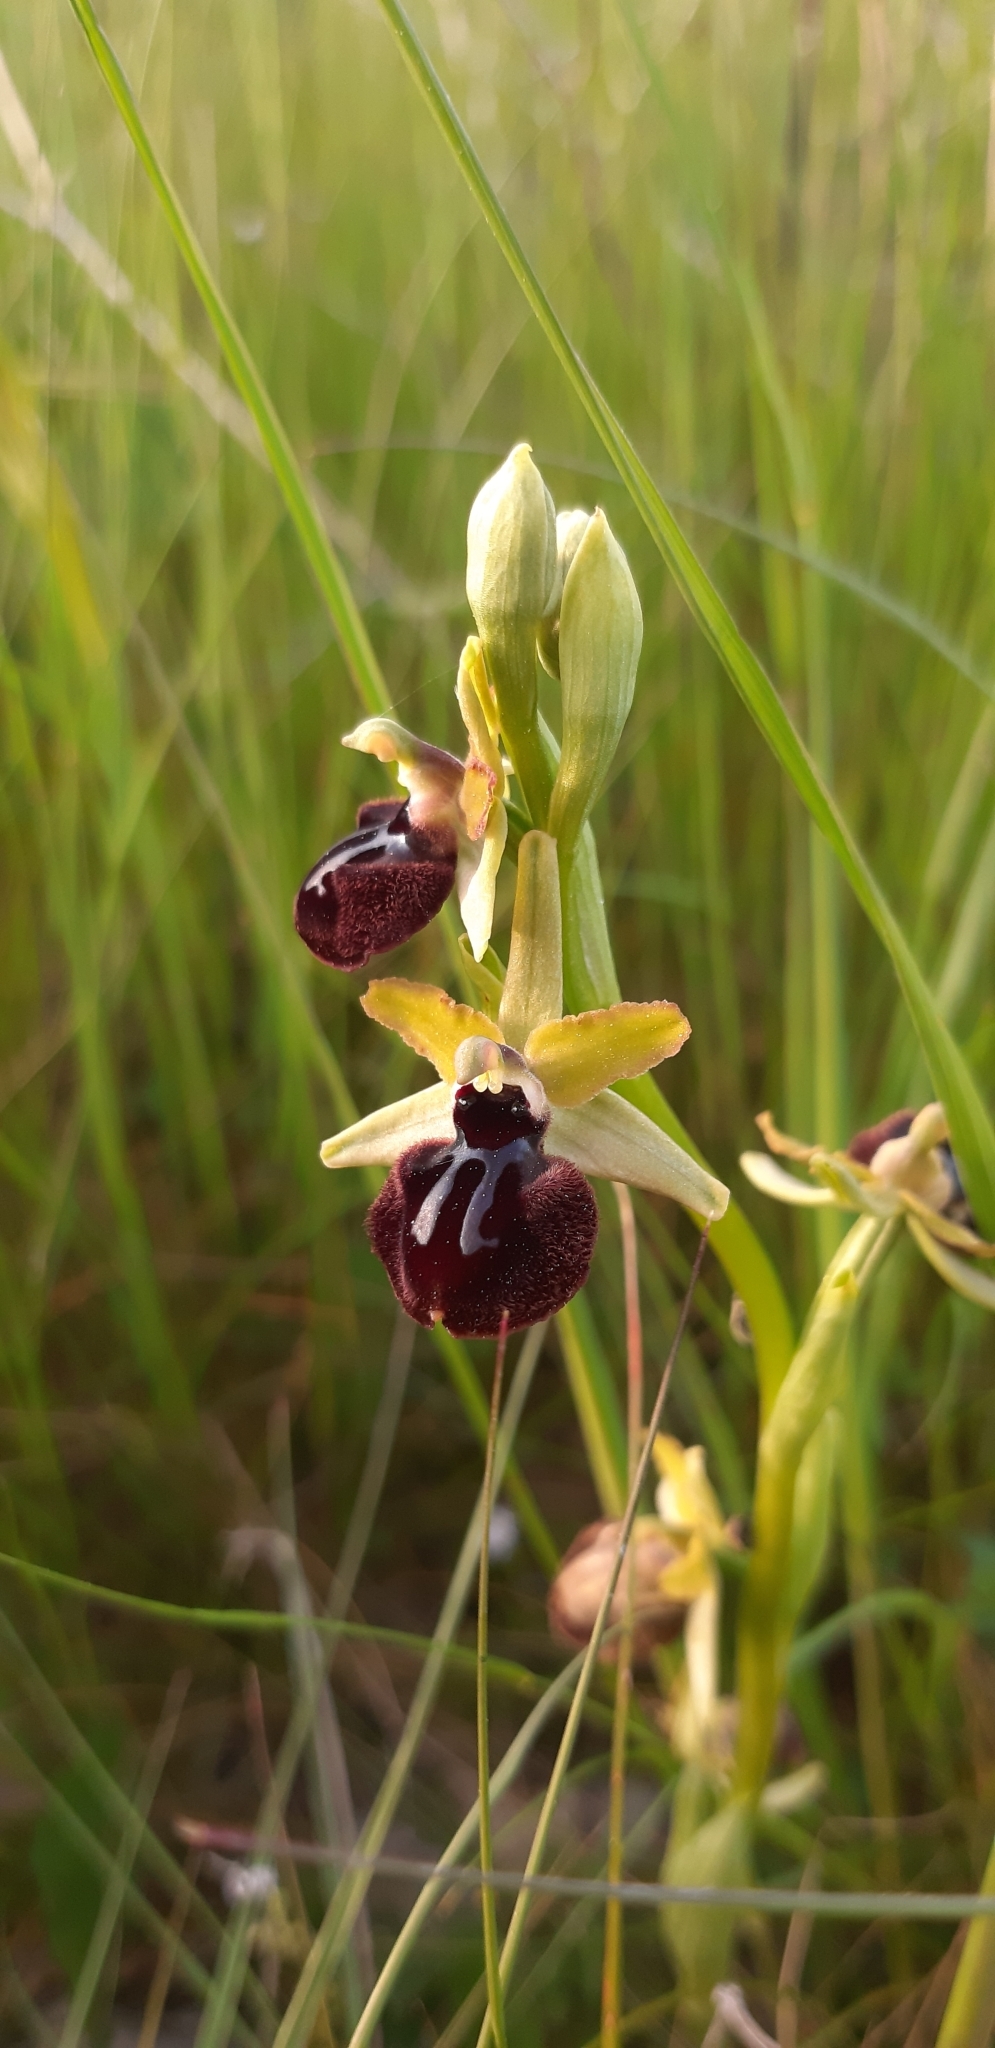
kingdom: Plantae
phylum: Tracheophyta
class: Liliopsida
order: Asparagales
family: Orchidaceae
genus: Ophrys
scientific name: Ophrys sphegodes
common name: Early spider-orchid
